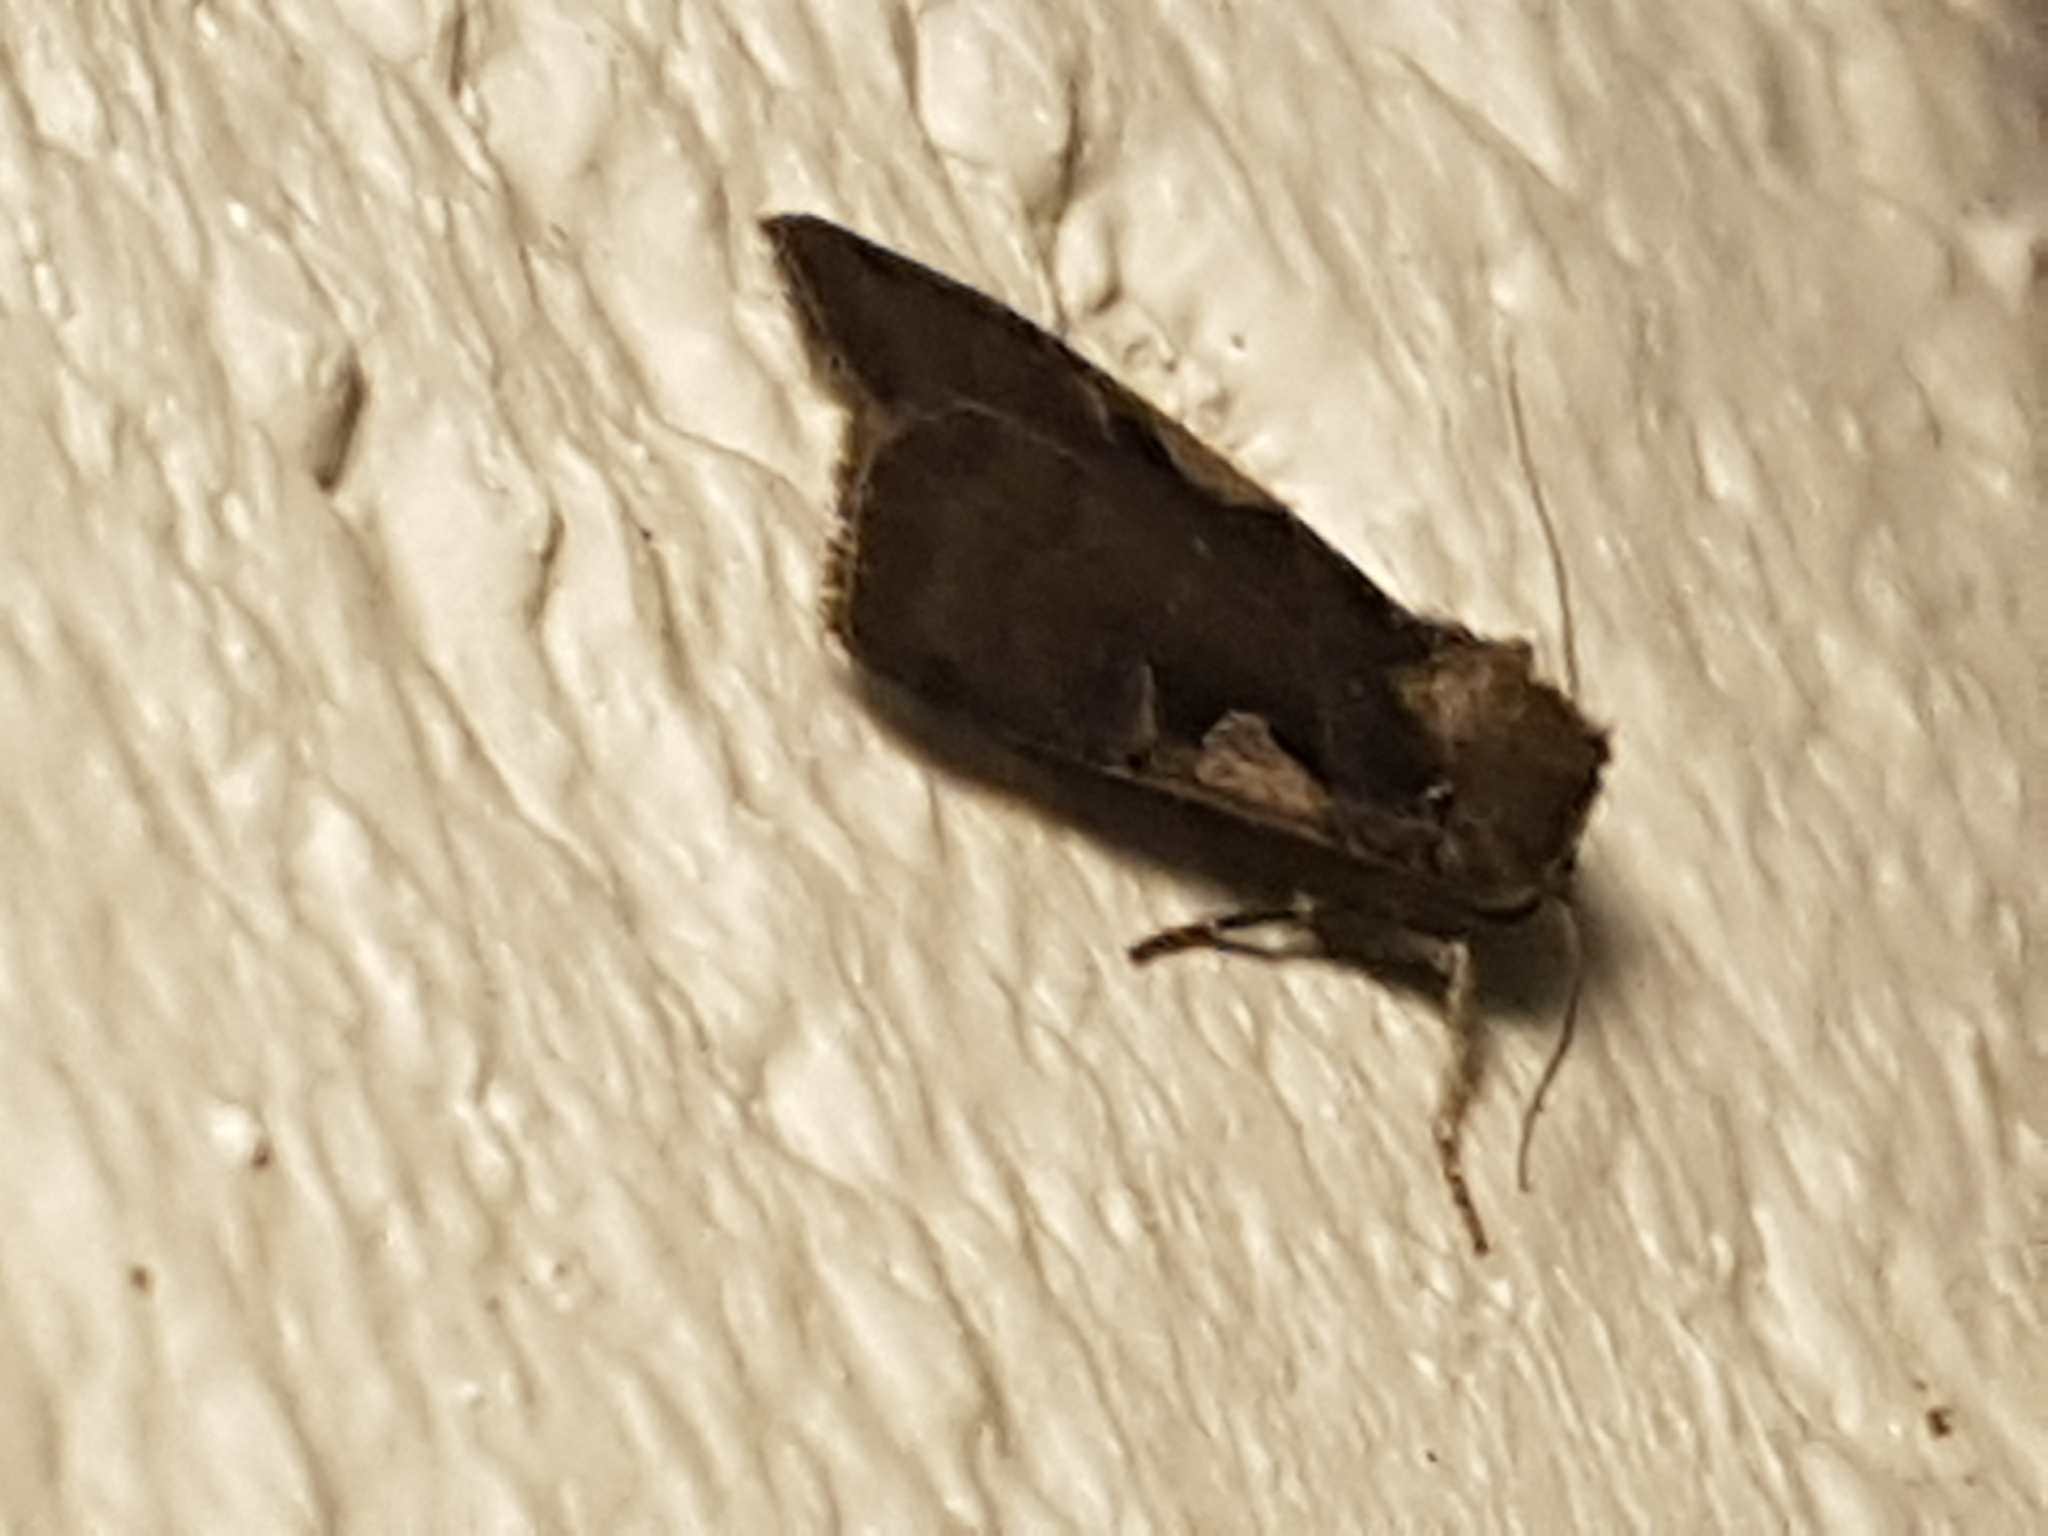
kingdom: Animalia
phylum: Arthropoda
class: Insecta
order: Lepidoptera
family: Noctuidae
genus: Xestia
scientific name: Xestia c-nigrum
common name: Setaceous hebrew character
